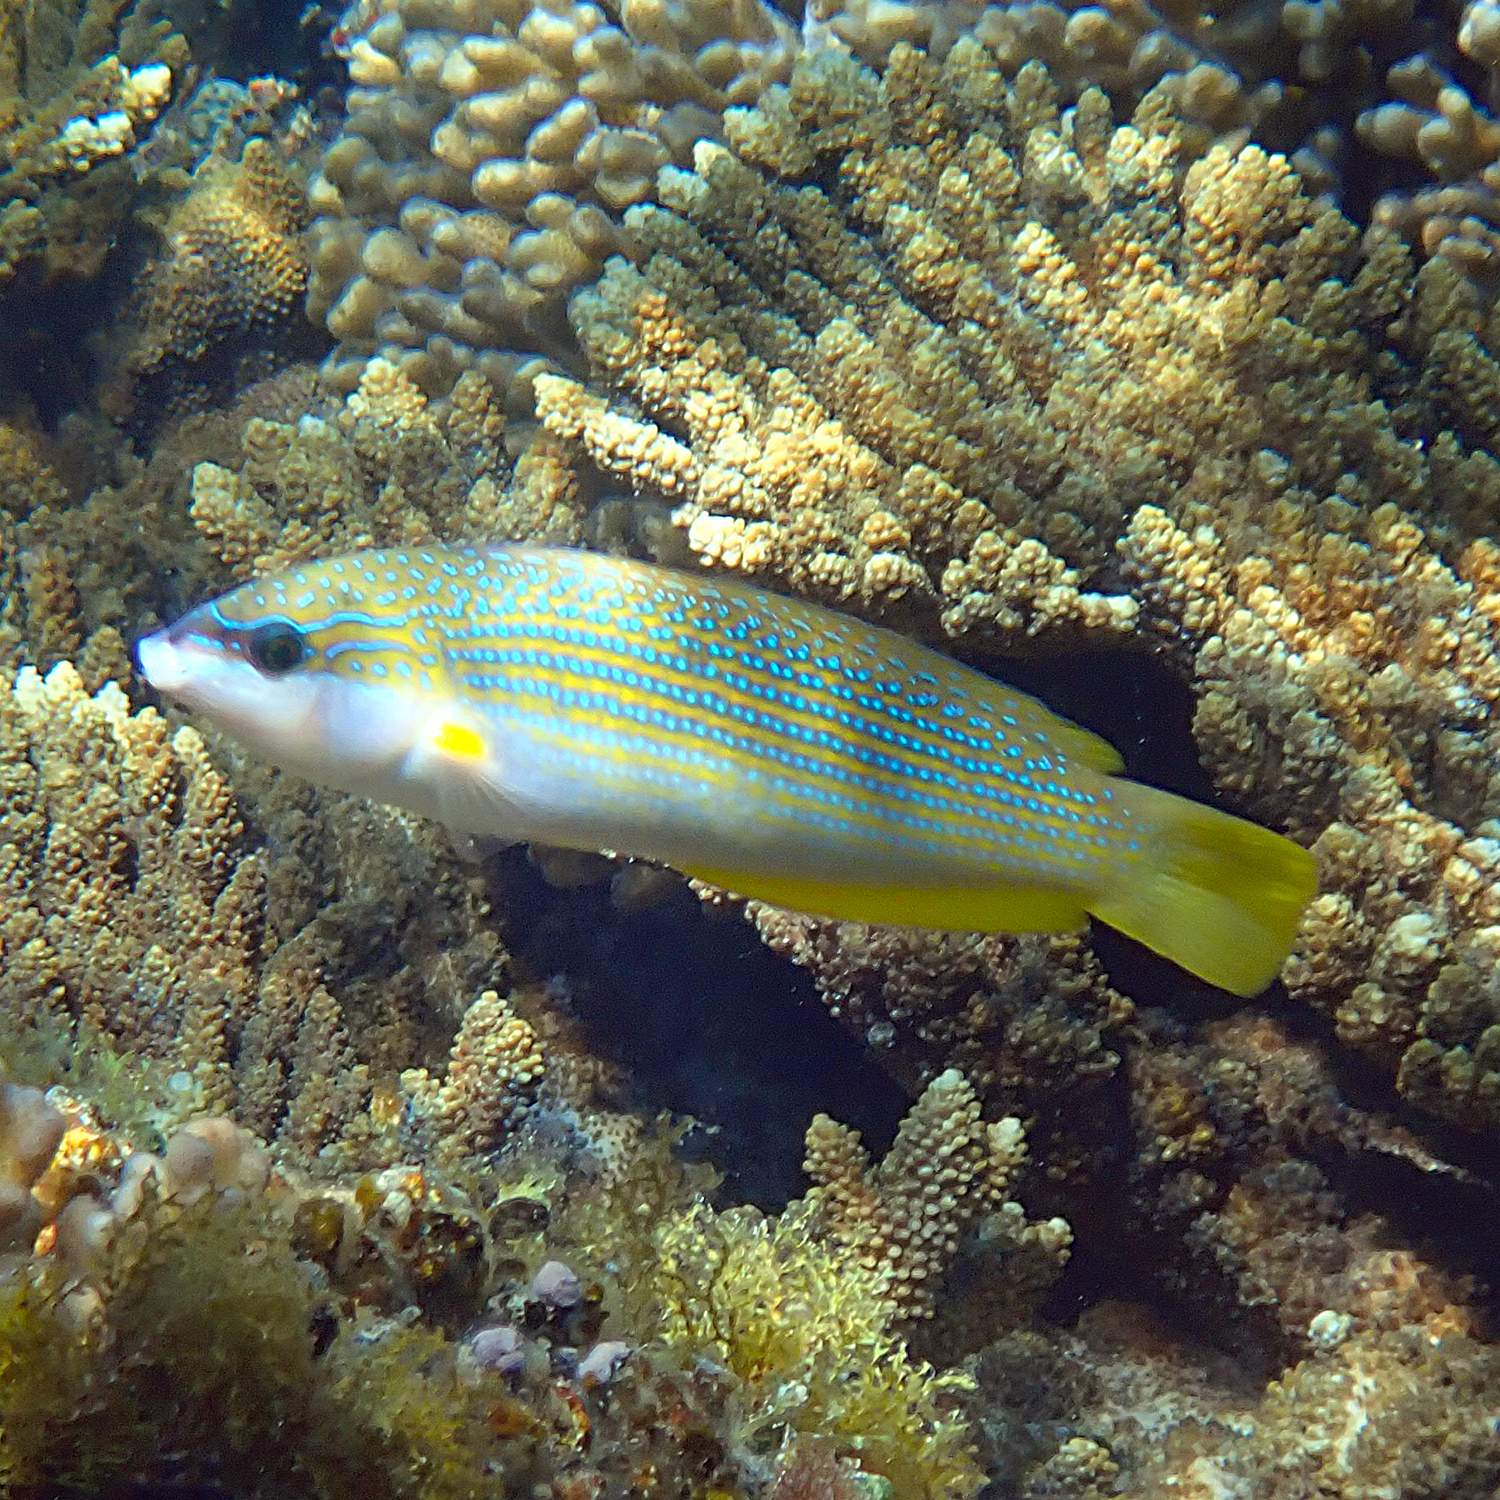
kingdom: Animalia
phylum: Chordata
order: Perciformes
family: Labridae
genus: Anampses
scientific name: Anampses elegans
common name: Elegant wrasse
